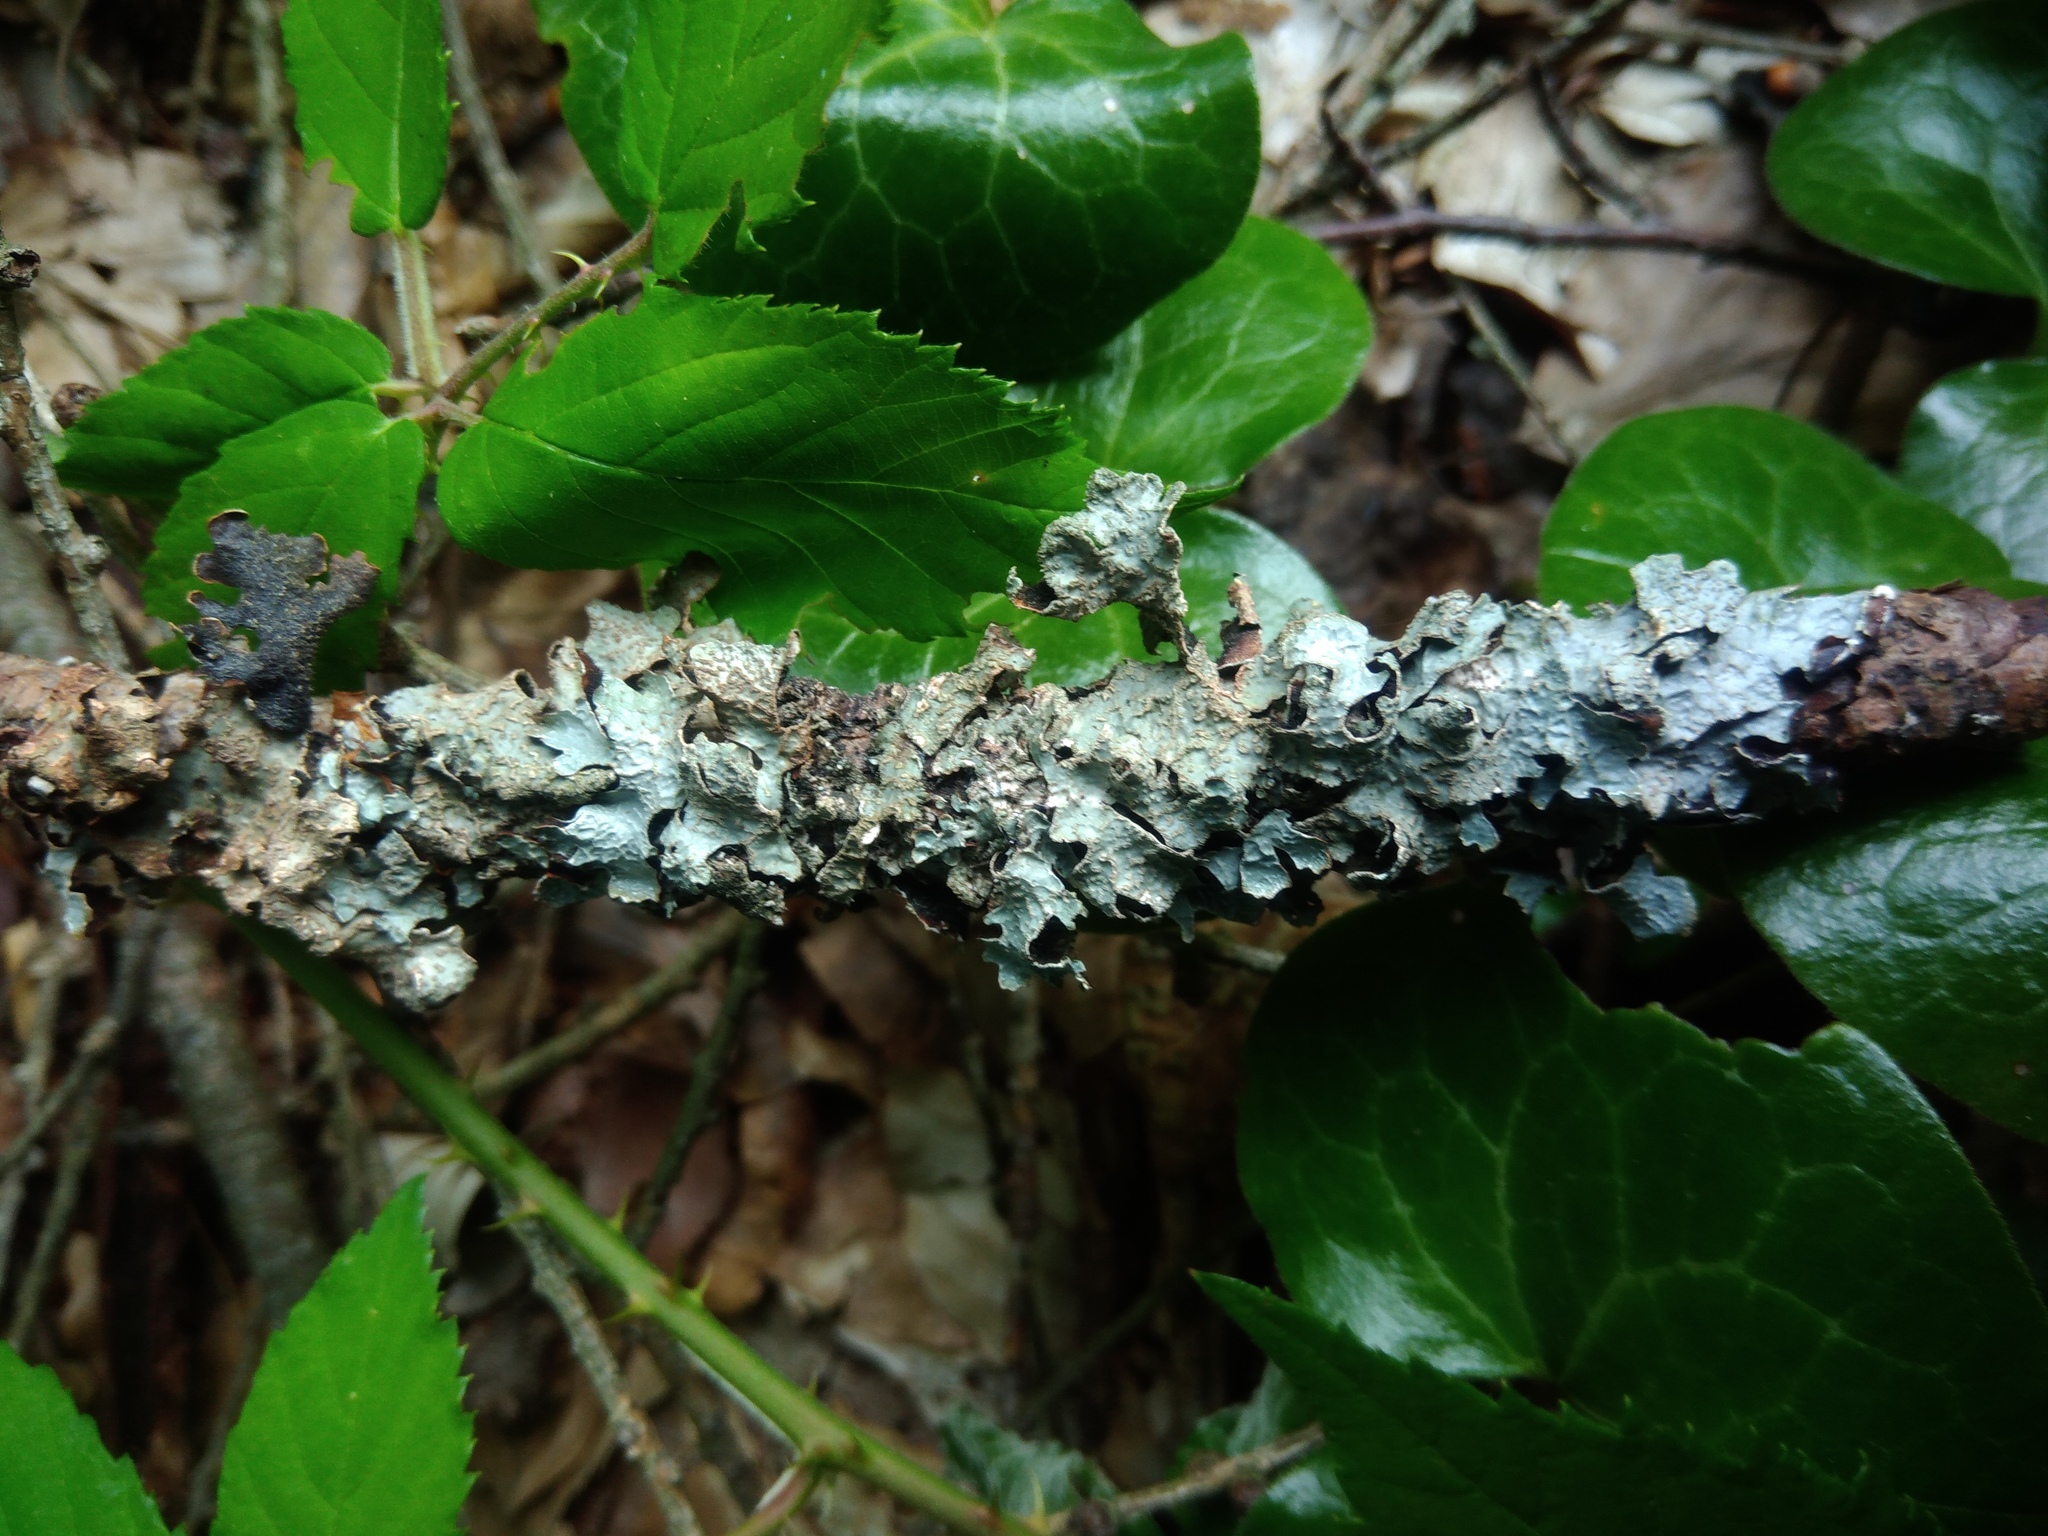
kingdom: Fungi
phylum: Ascomycota
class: Lecanoromycetes
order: Lecanorales
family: Parmeliaceae
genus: Parmelia
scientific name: Parmelia sulcata
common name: Netted shield lichen
